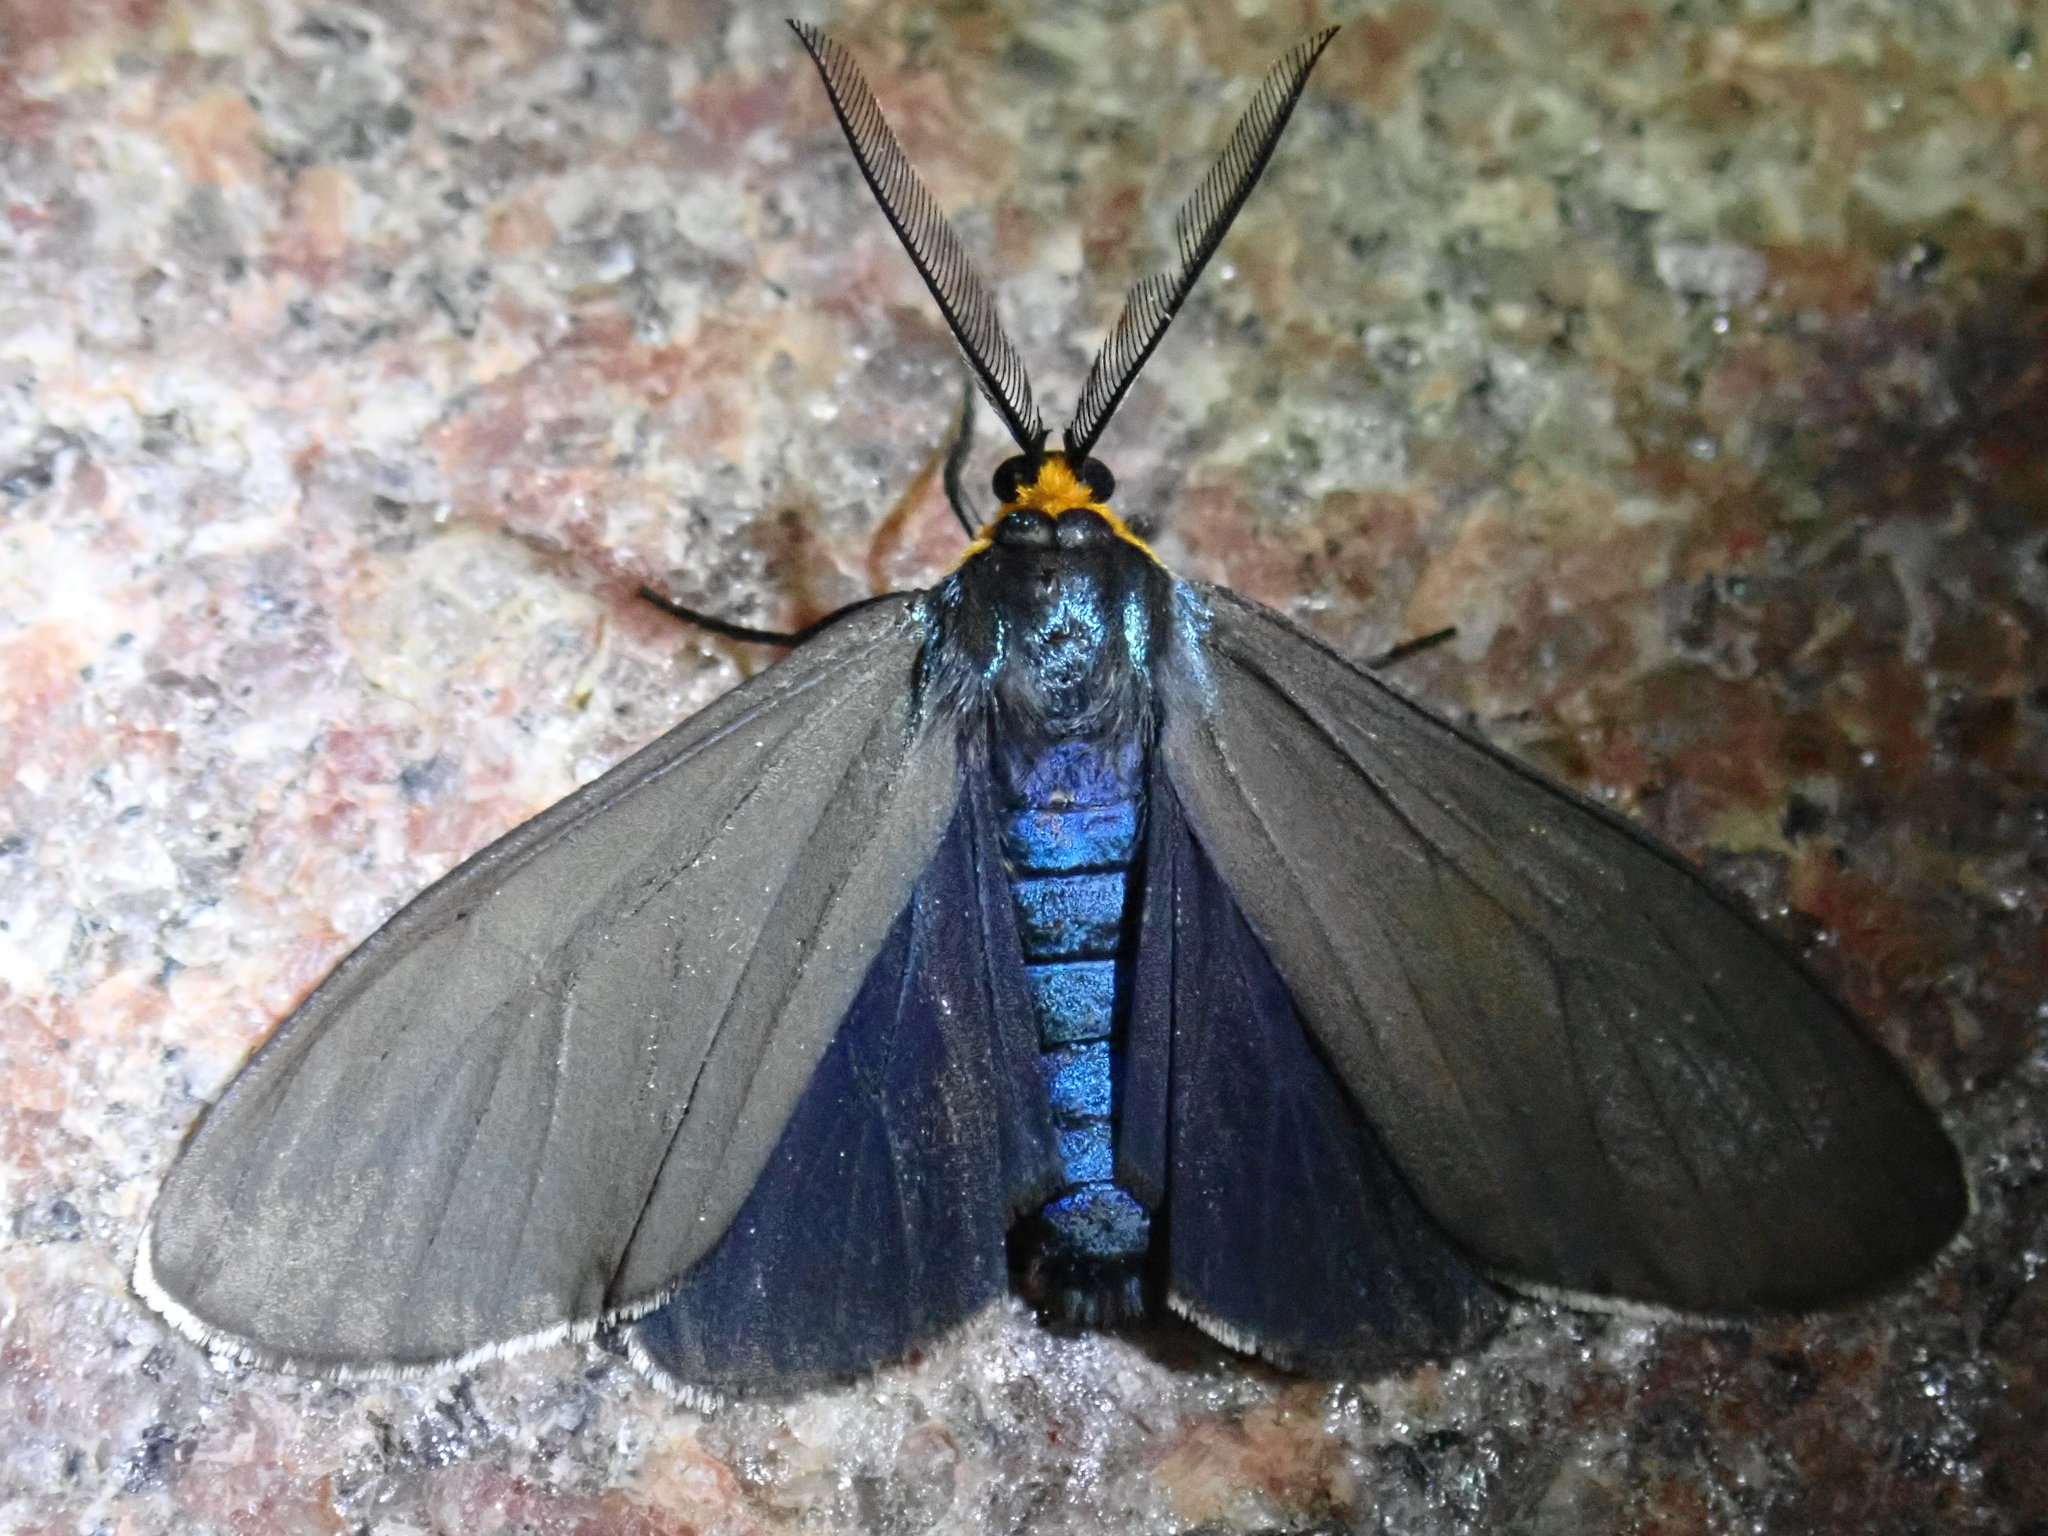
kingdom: Animalia
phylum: Arthropoda
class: Insecta
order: Lepidoptera
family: Erebidae
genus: Ctenucha
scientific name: Ctenucha virginica
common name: Virginia ctenucha moth
